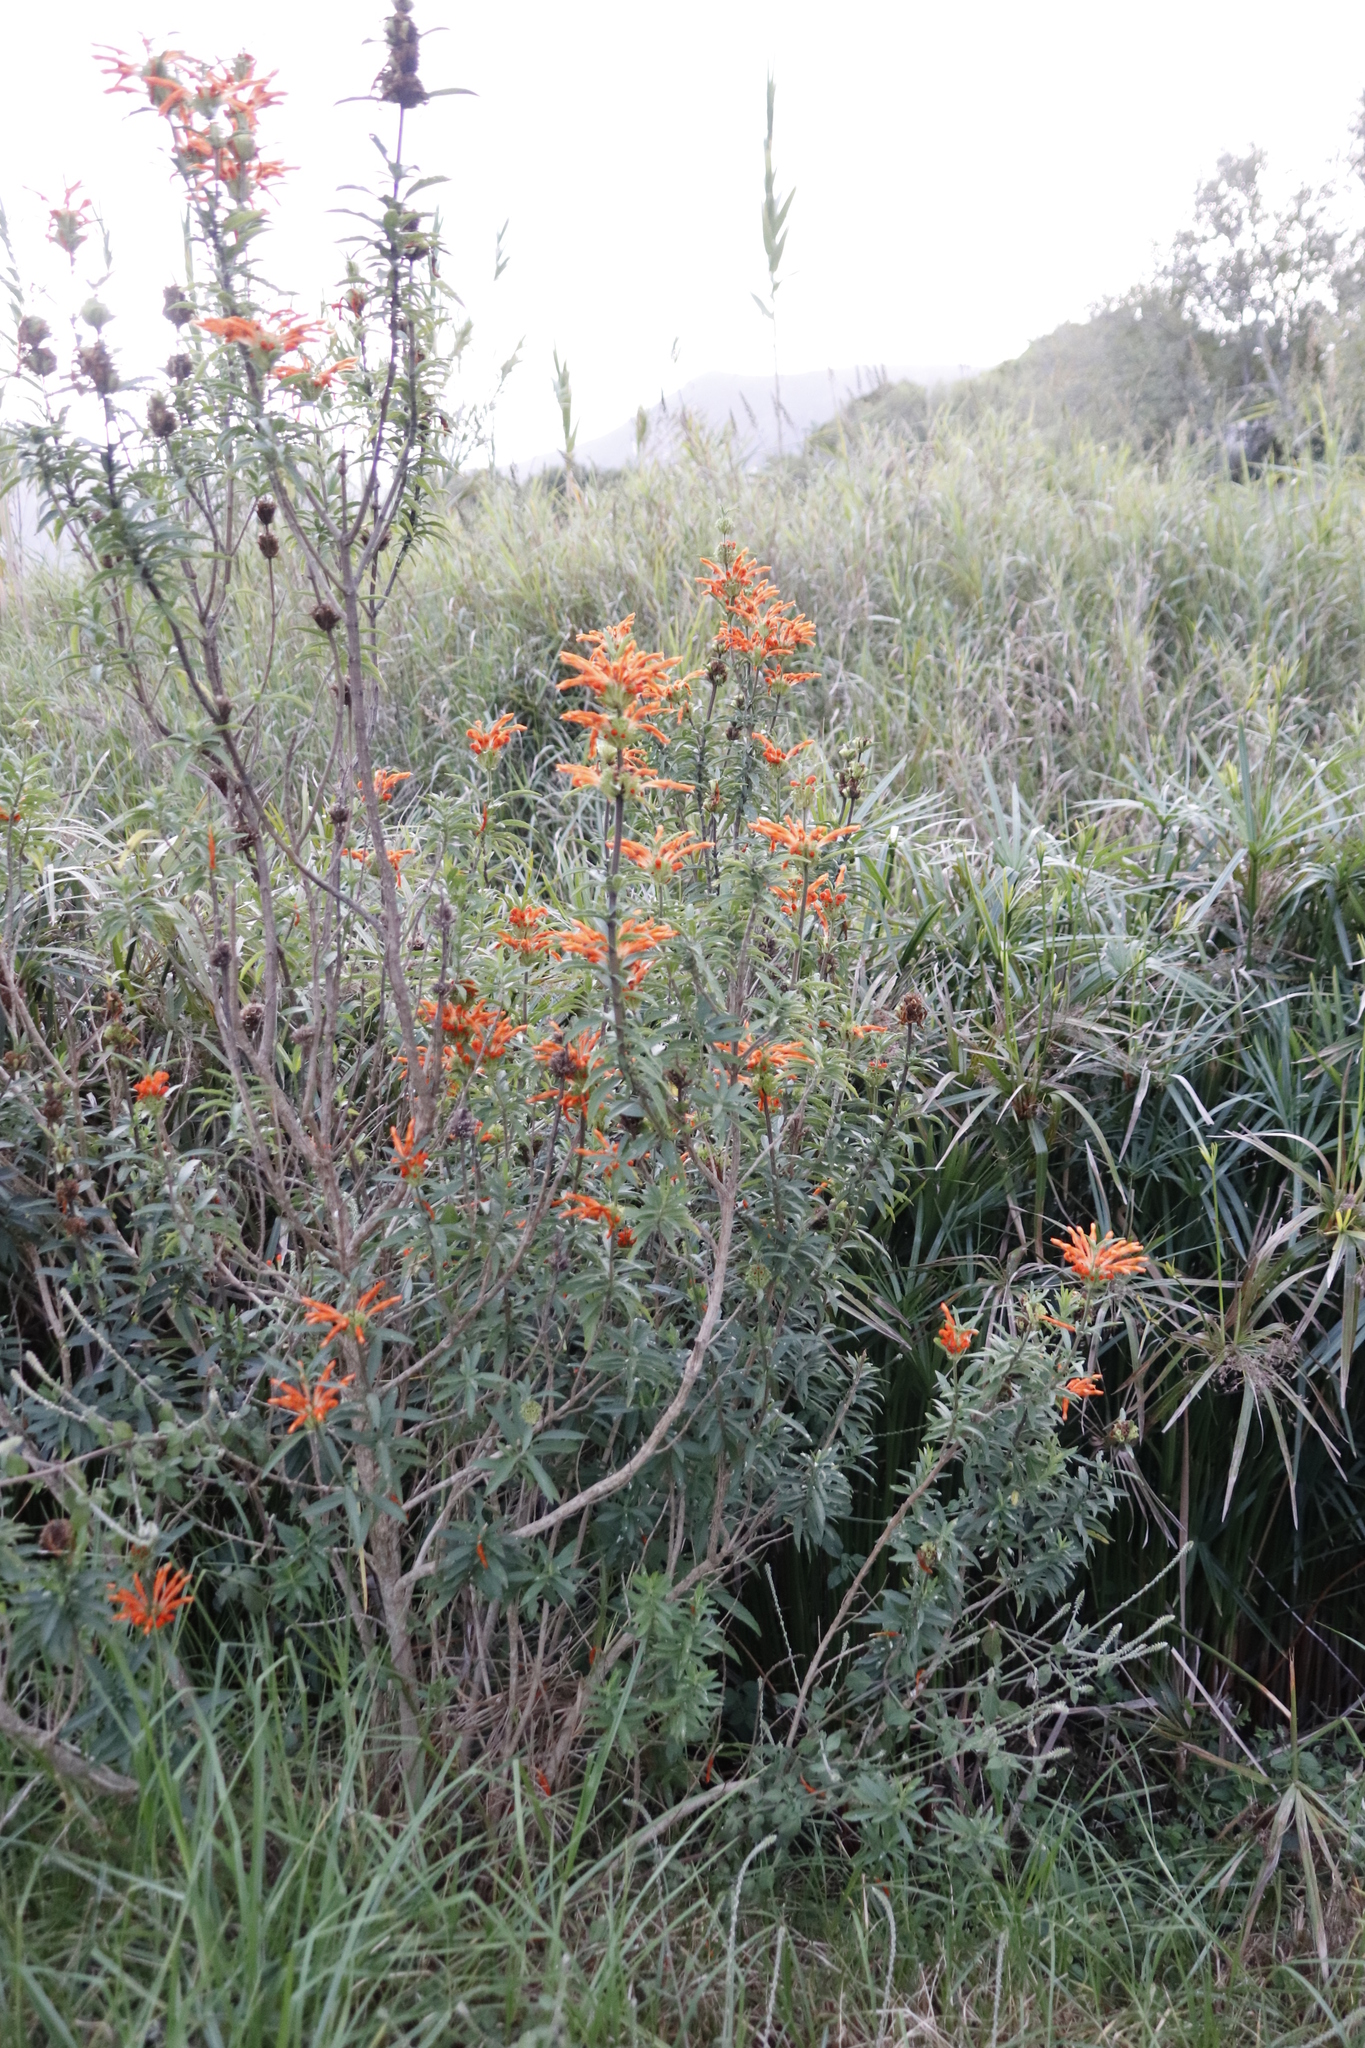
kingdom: Plantae
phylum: Tracheophyta
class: Magnoliopsida
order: Lamiales
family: Lamiaceae
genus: Leonotis
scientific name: Leonotis leonurus
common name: Lion's ear
